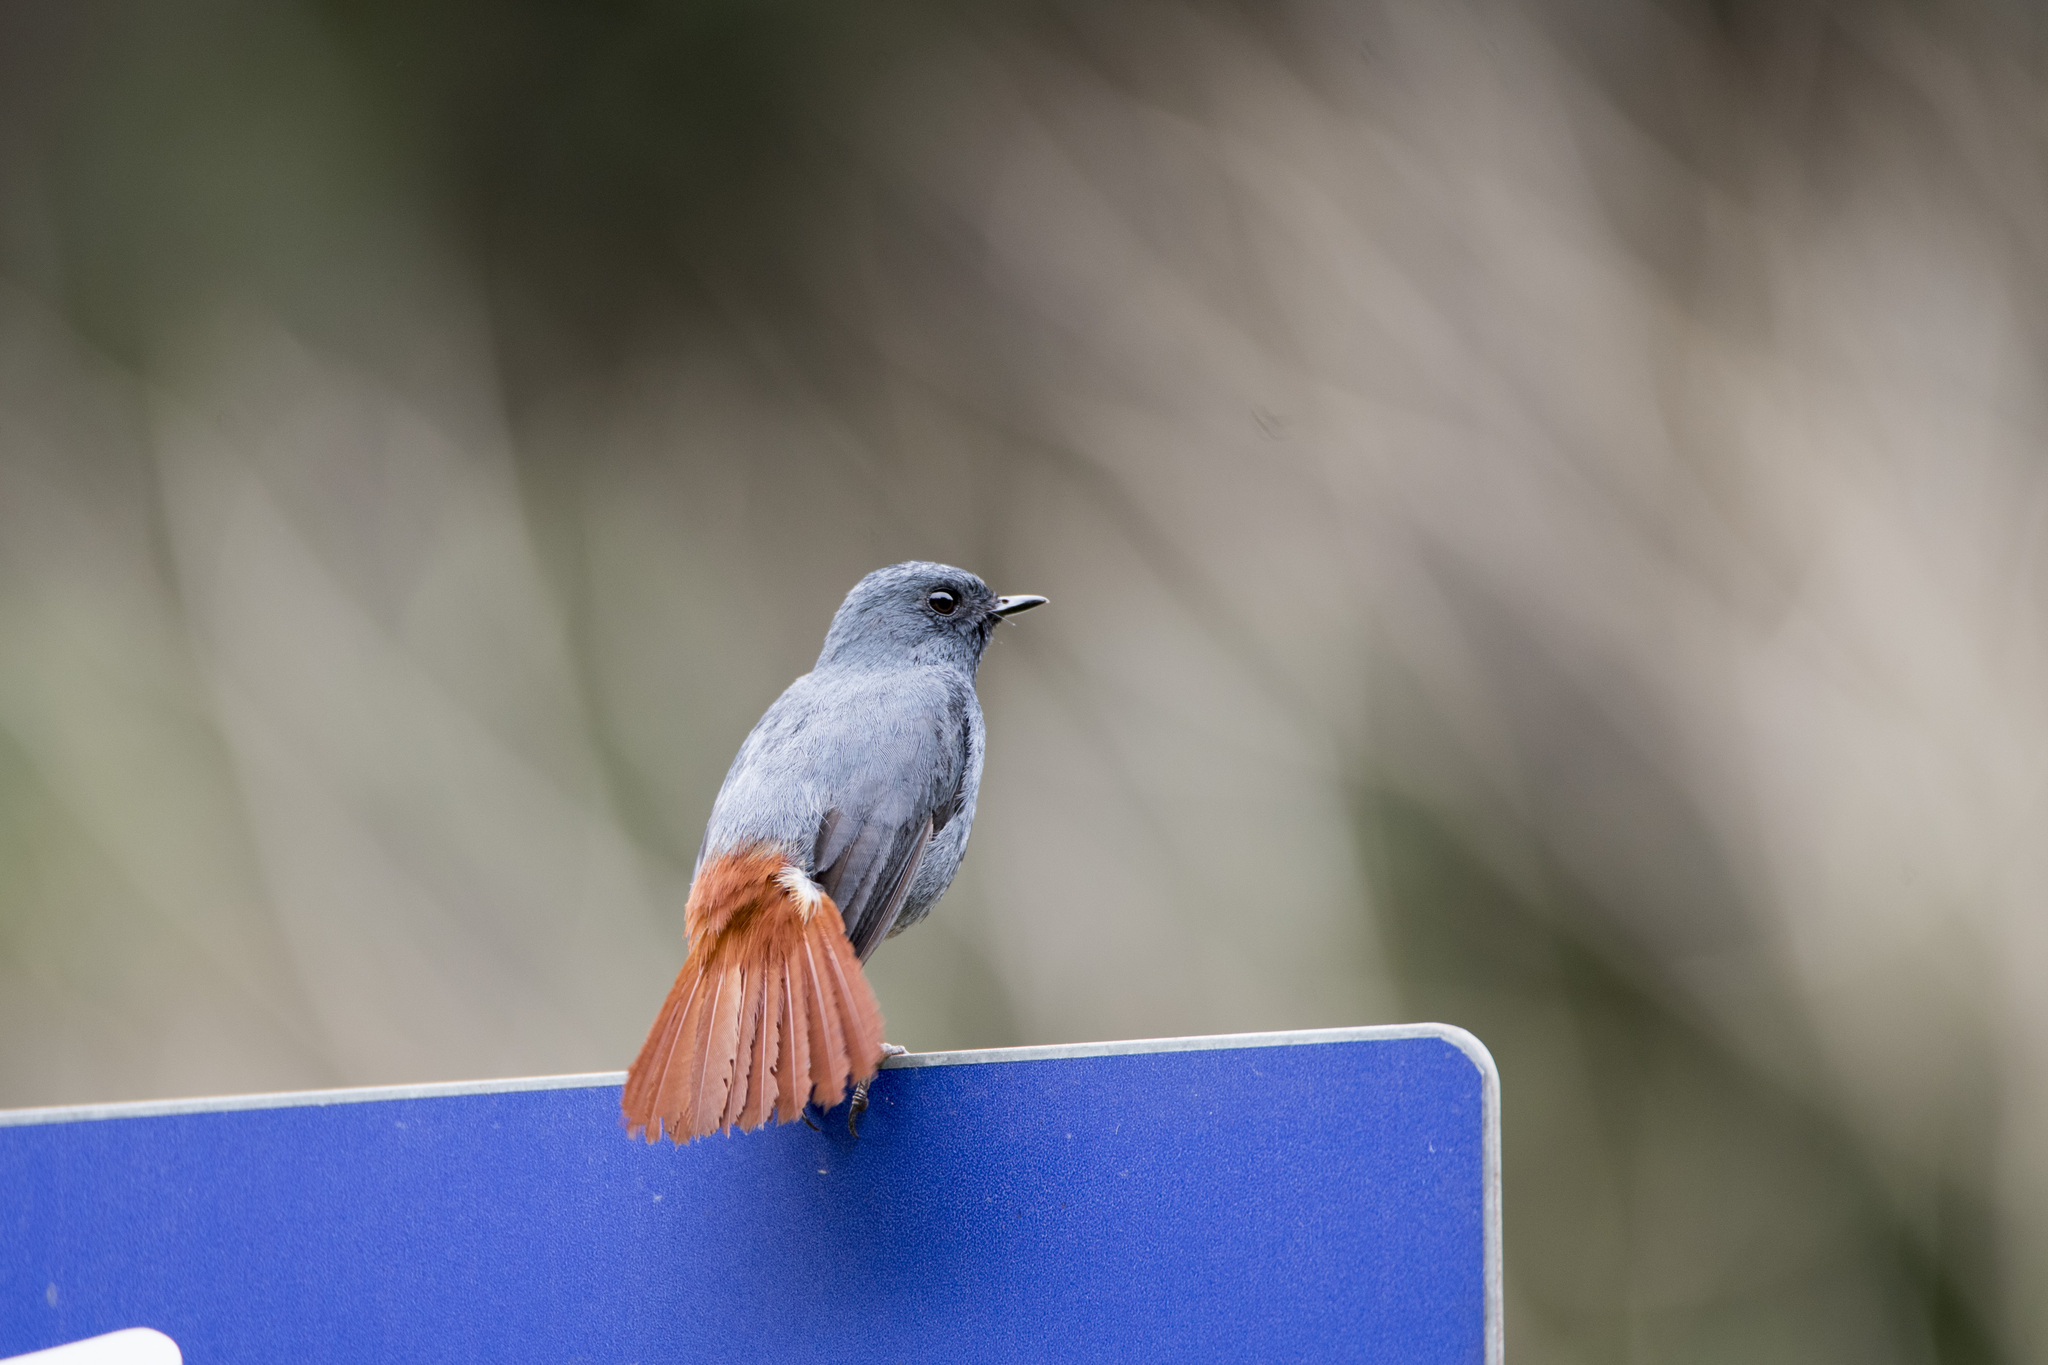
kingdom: Animalia
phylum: Chordata
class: Aves
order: Passeriformes
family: Muscicapidae
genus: Rhyacornis
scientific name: Rhyacornis fuliginosa
